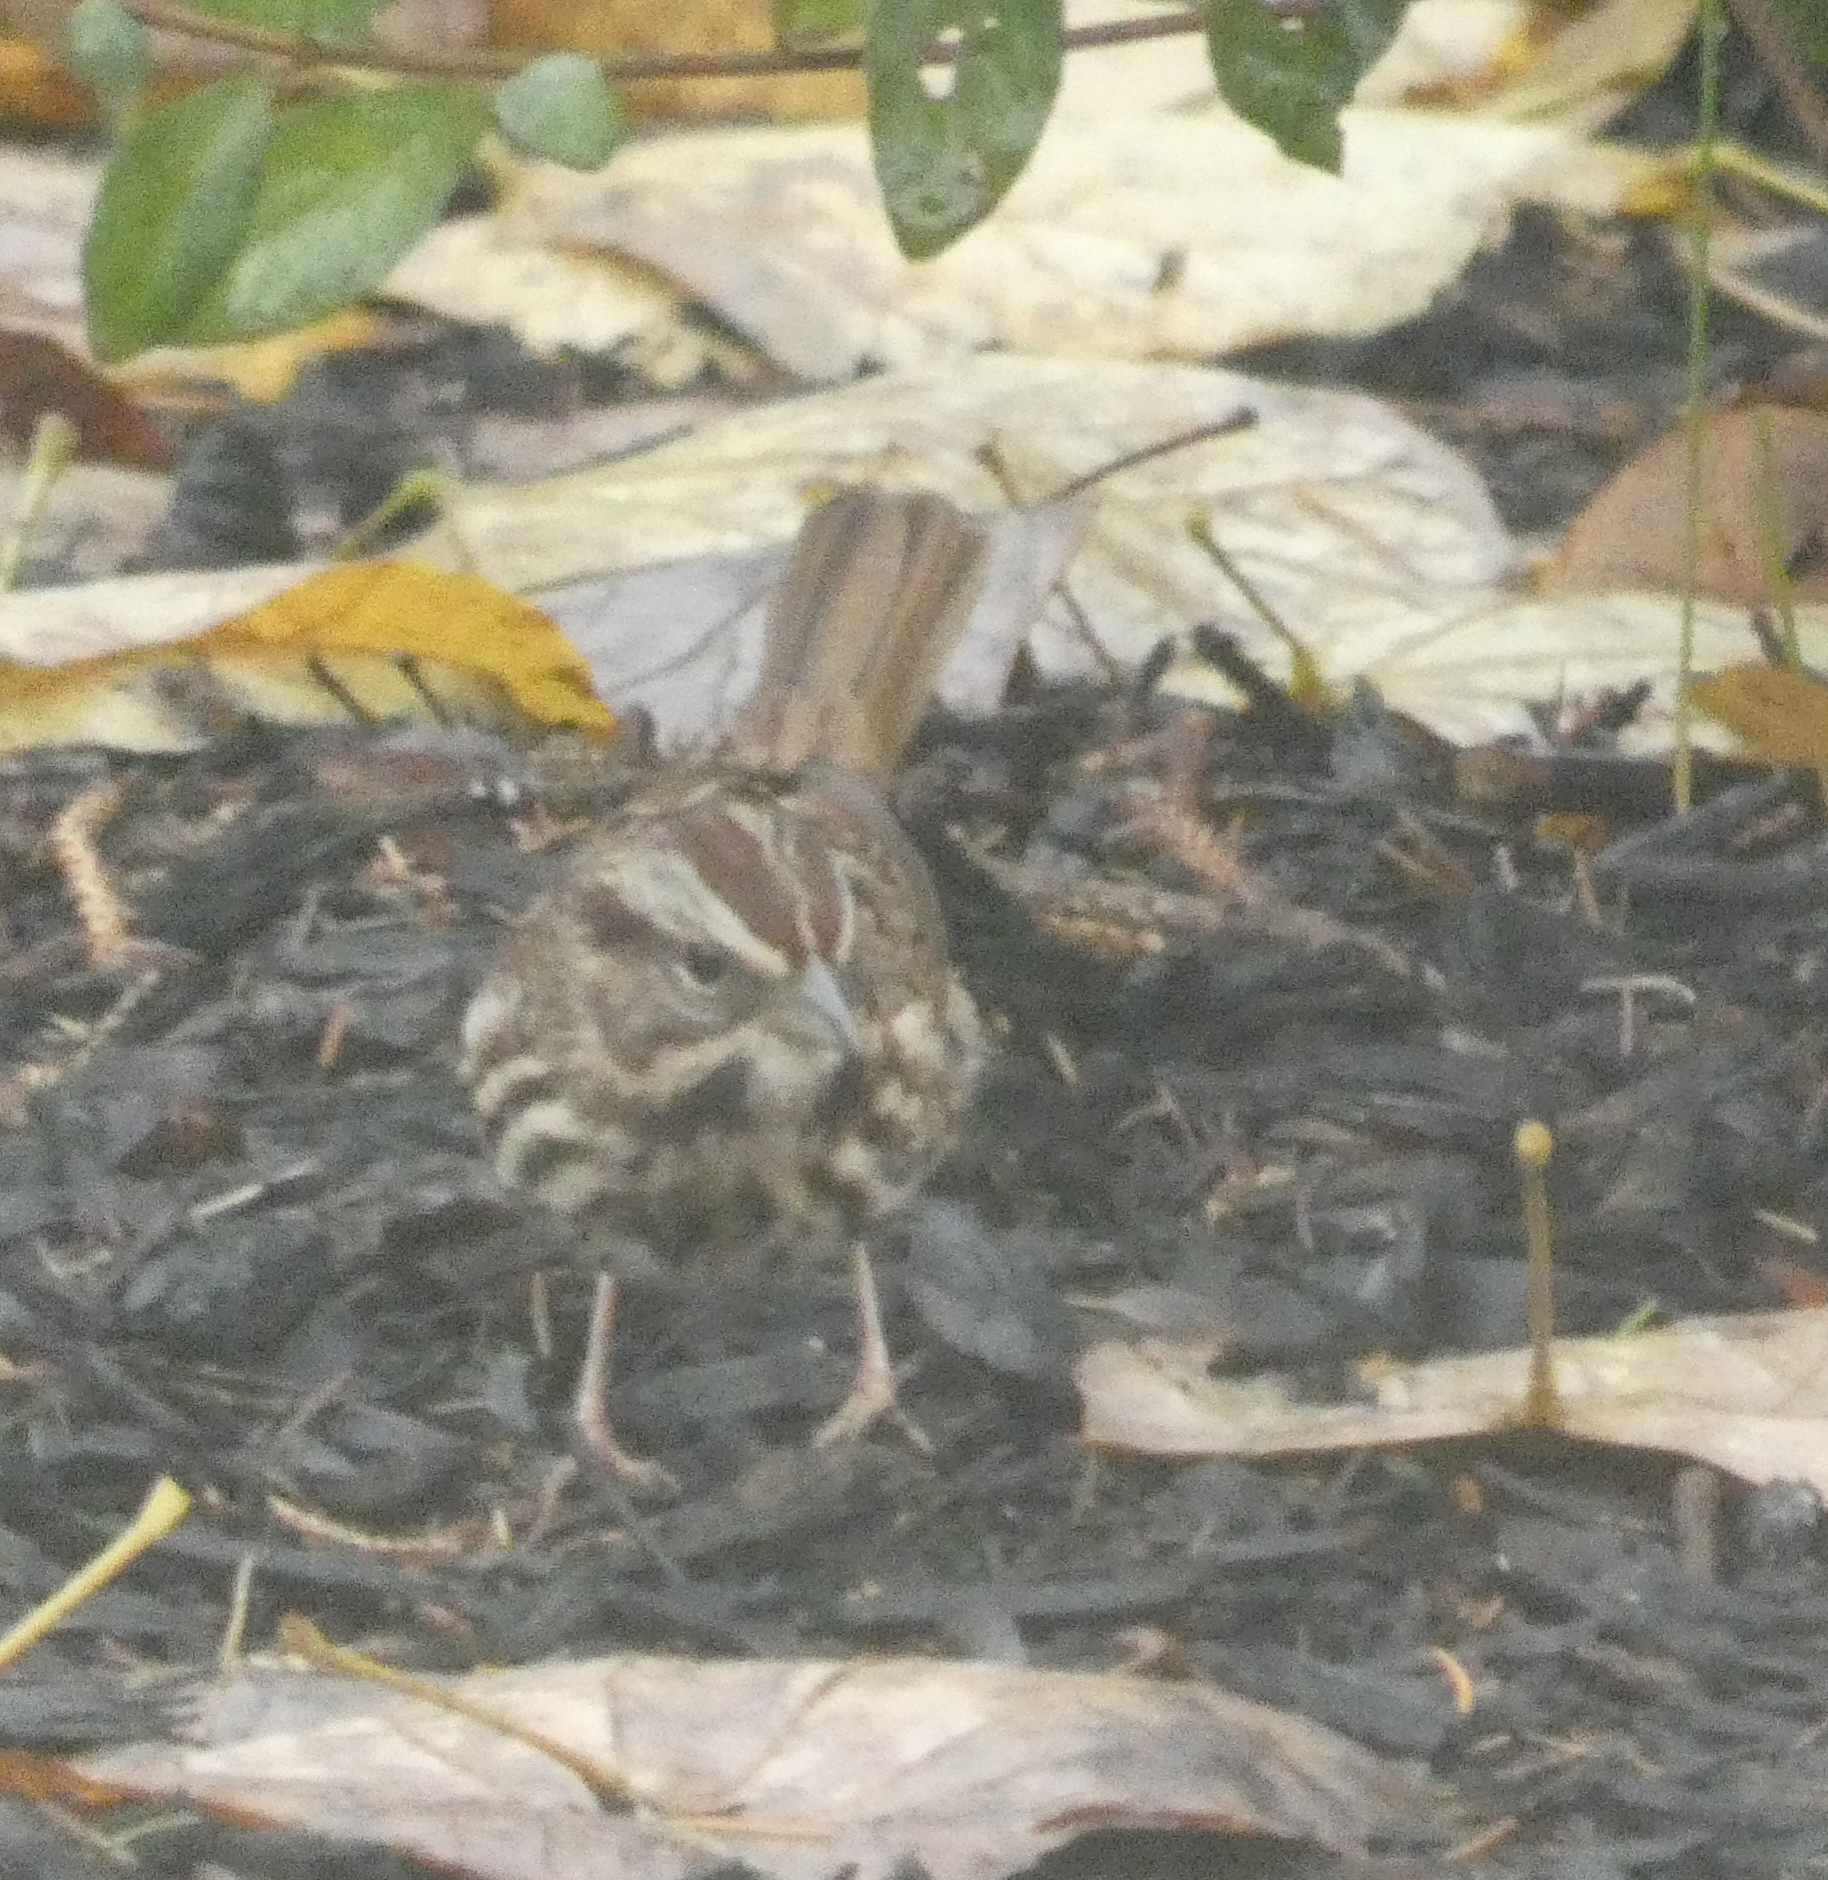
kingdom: Animalia
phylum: Chordata
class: Aves
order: Passeriformes
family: Passerellidae
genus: Melospiza
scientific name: Melospiza melodia
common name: Song sparrow
